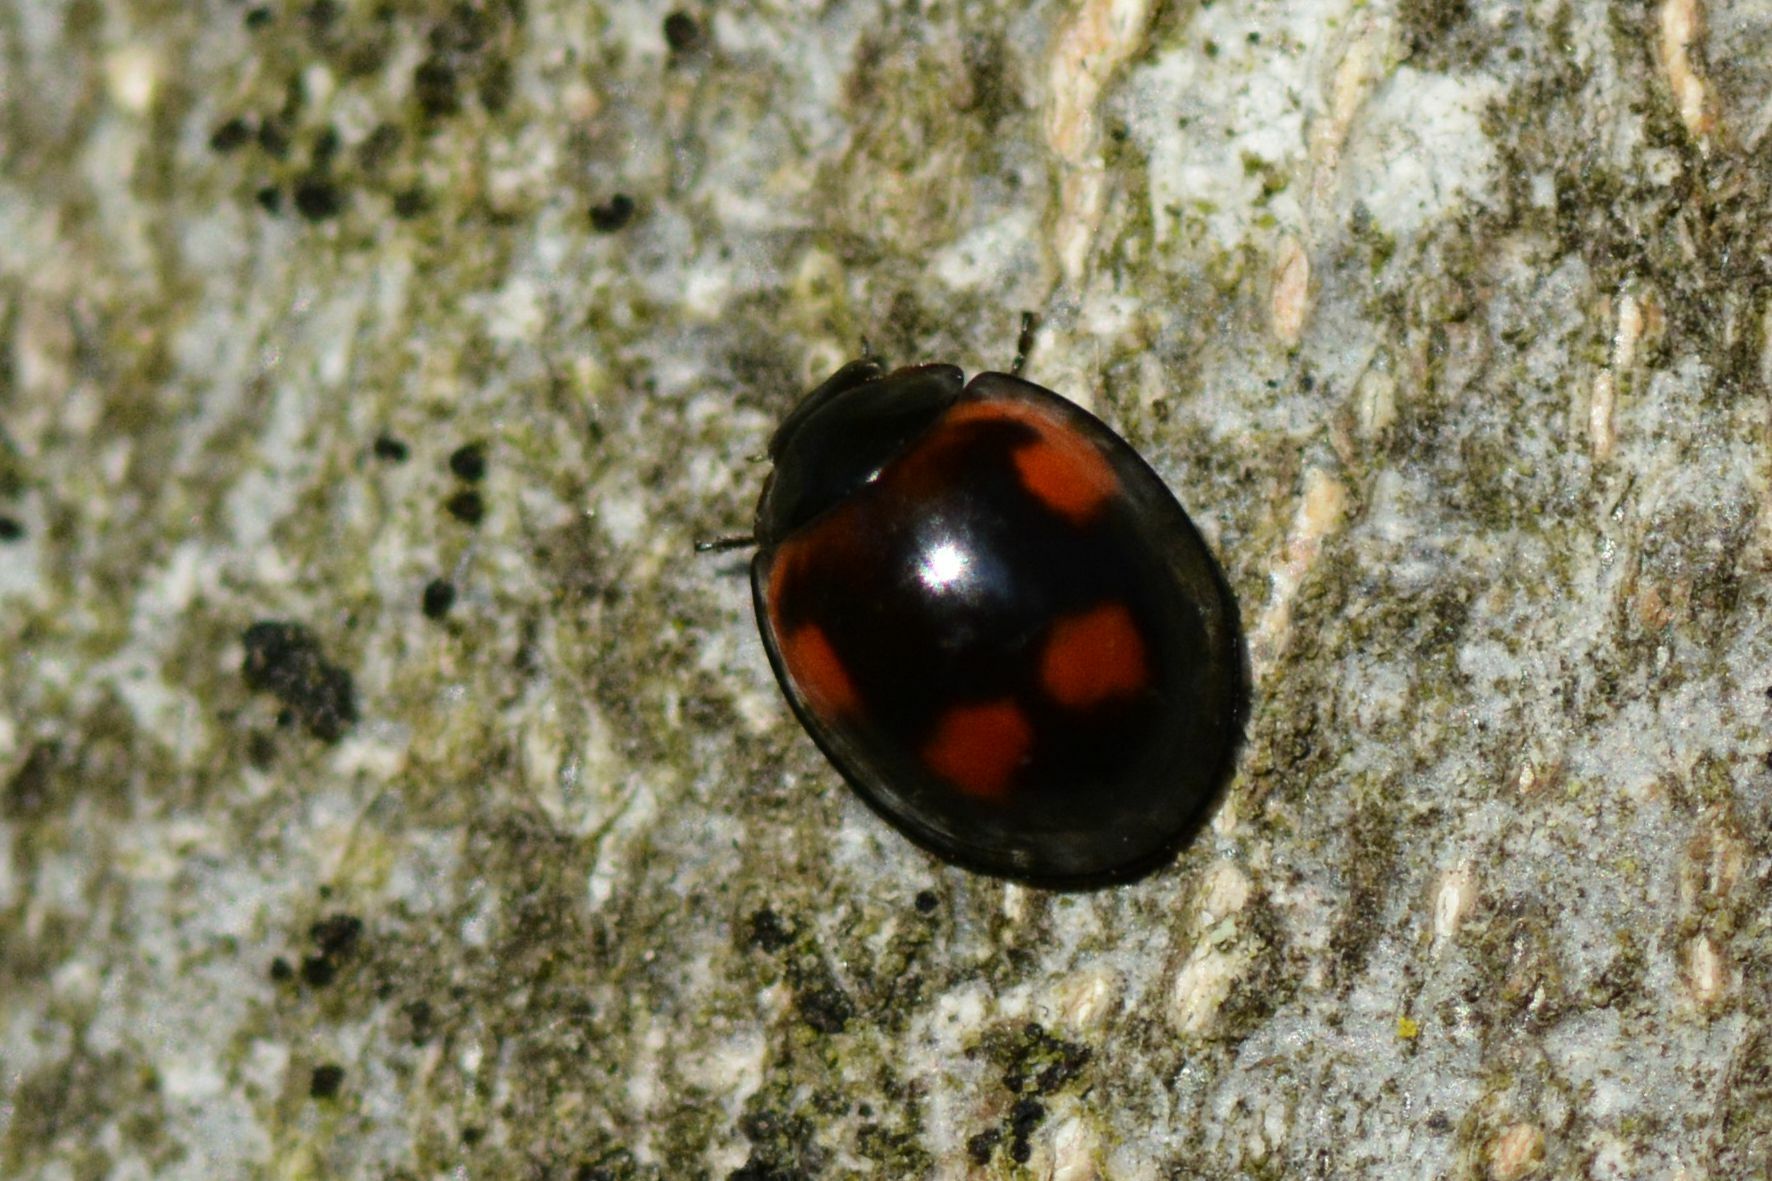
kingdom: Animalia
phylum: Arthropoda
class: Insecta
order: Coleoptera
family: Coccinellidae
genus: Brumus
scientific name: Brumus quadripustulatus
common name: Ladybird beetle
